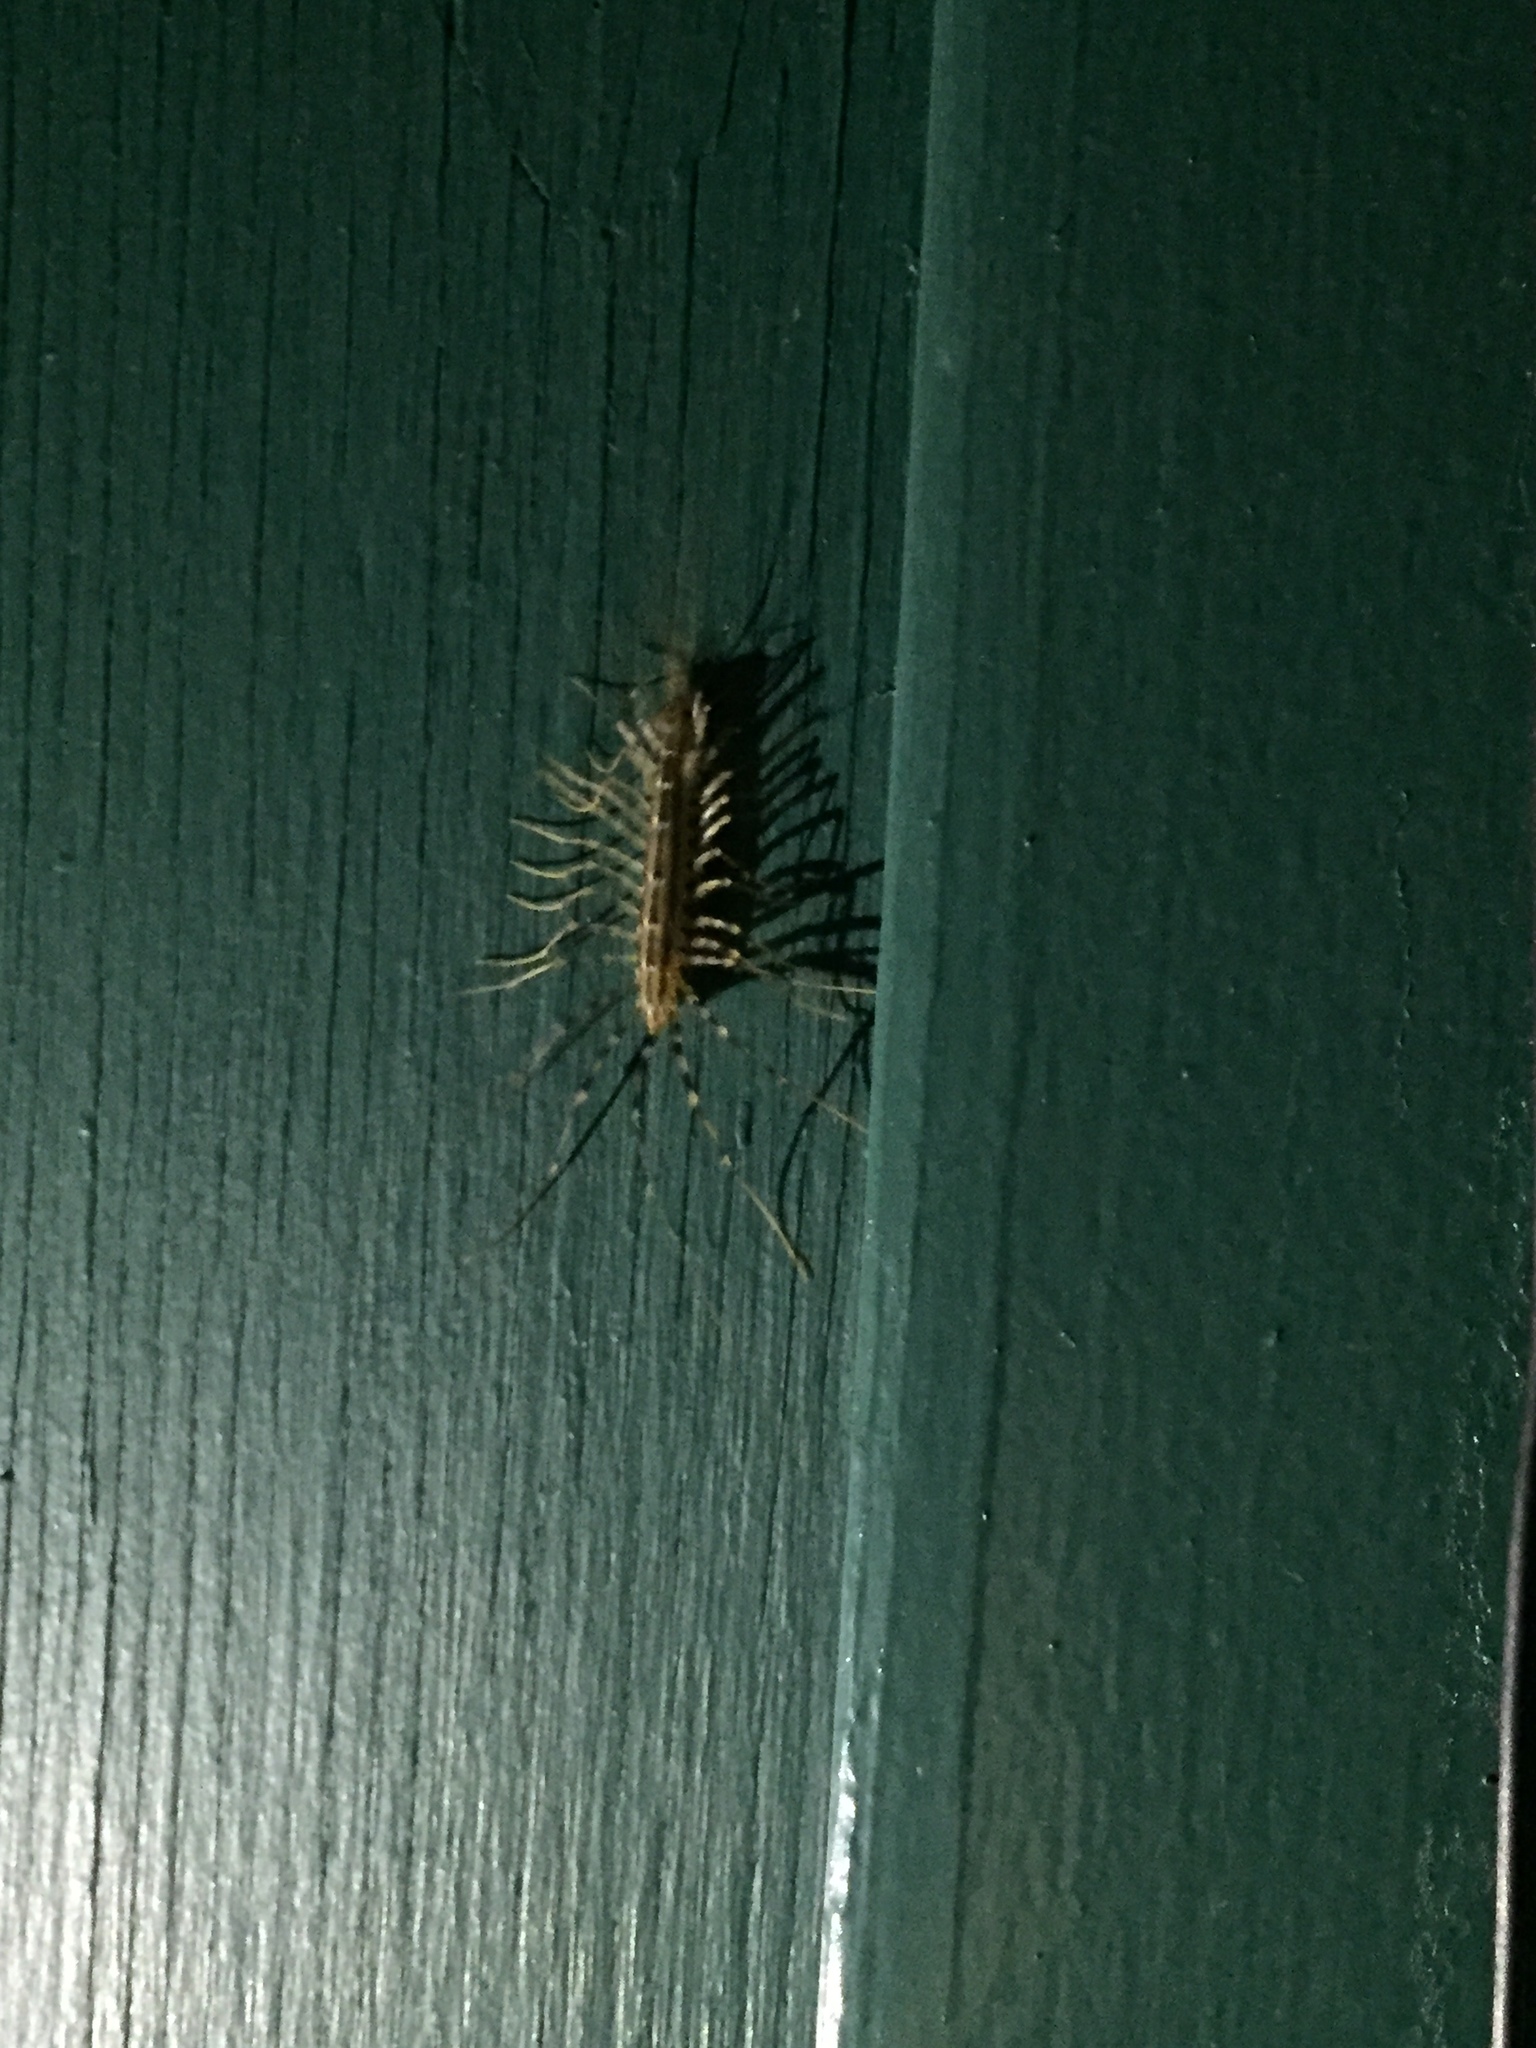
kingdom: Animalia
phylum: Arthropoda
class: Chilopoda
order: Scutigeromorpha
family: Scutigeridae
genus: Scutigera
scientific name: Scutigera coleoptrata
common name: House centipede
